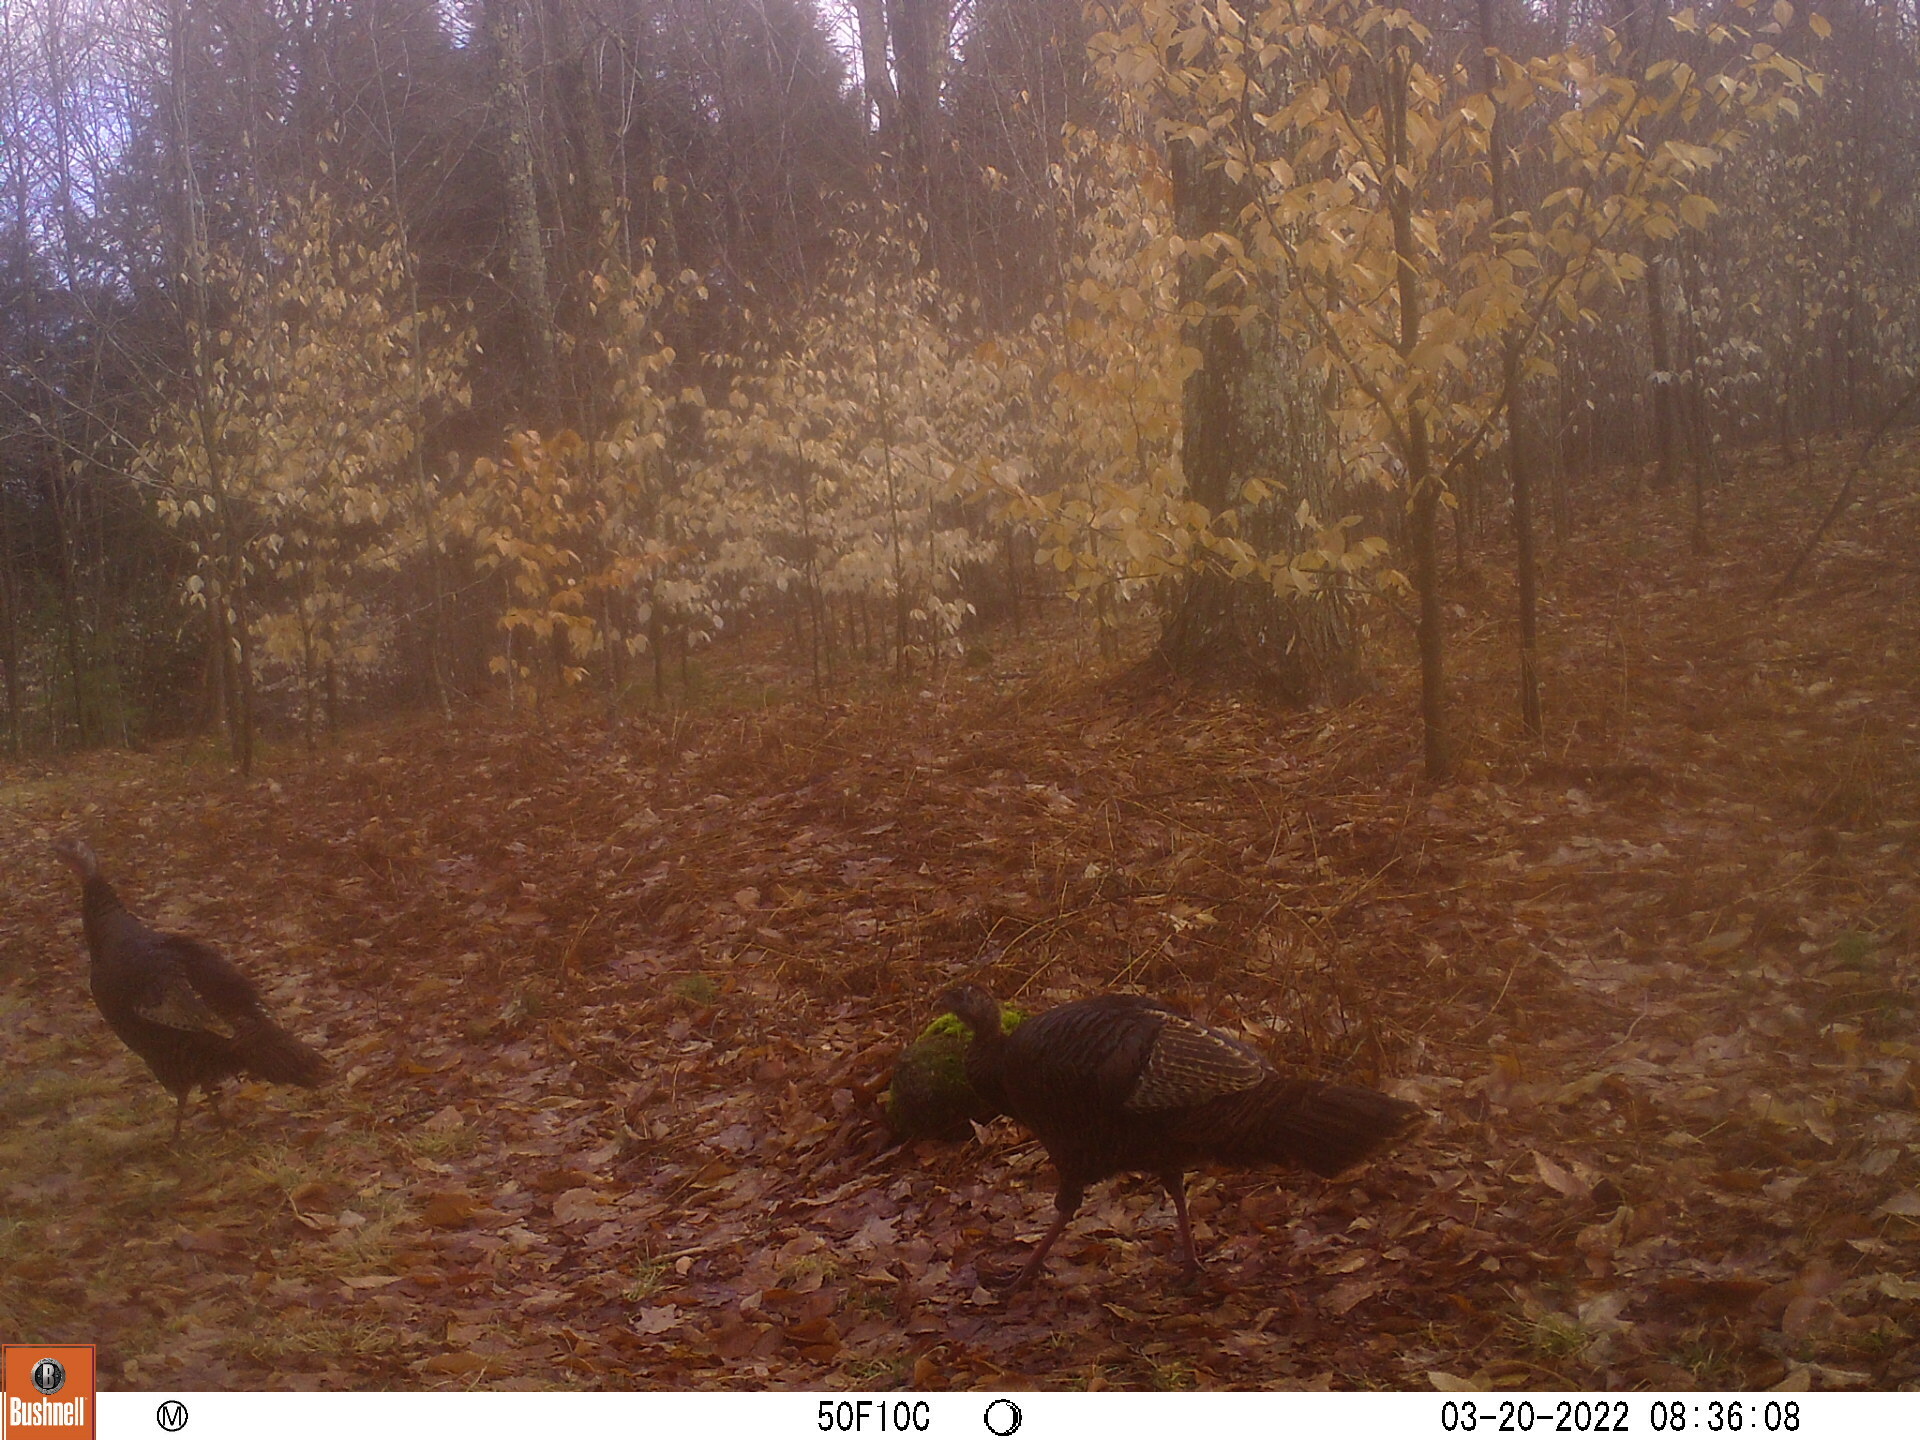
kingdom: Animalia
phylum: Chordata
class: Aves
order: Galliformes
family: Phasianidae
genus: Meleagris
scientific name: Meleagris gallopavo
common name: Wild turkey
